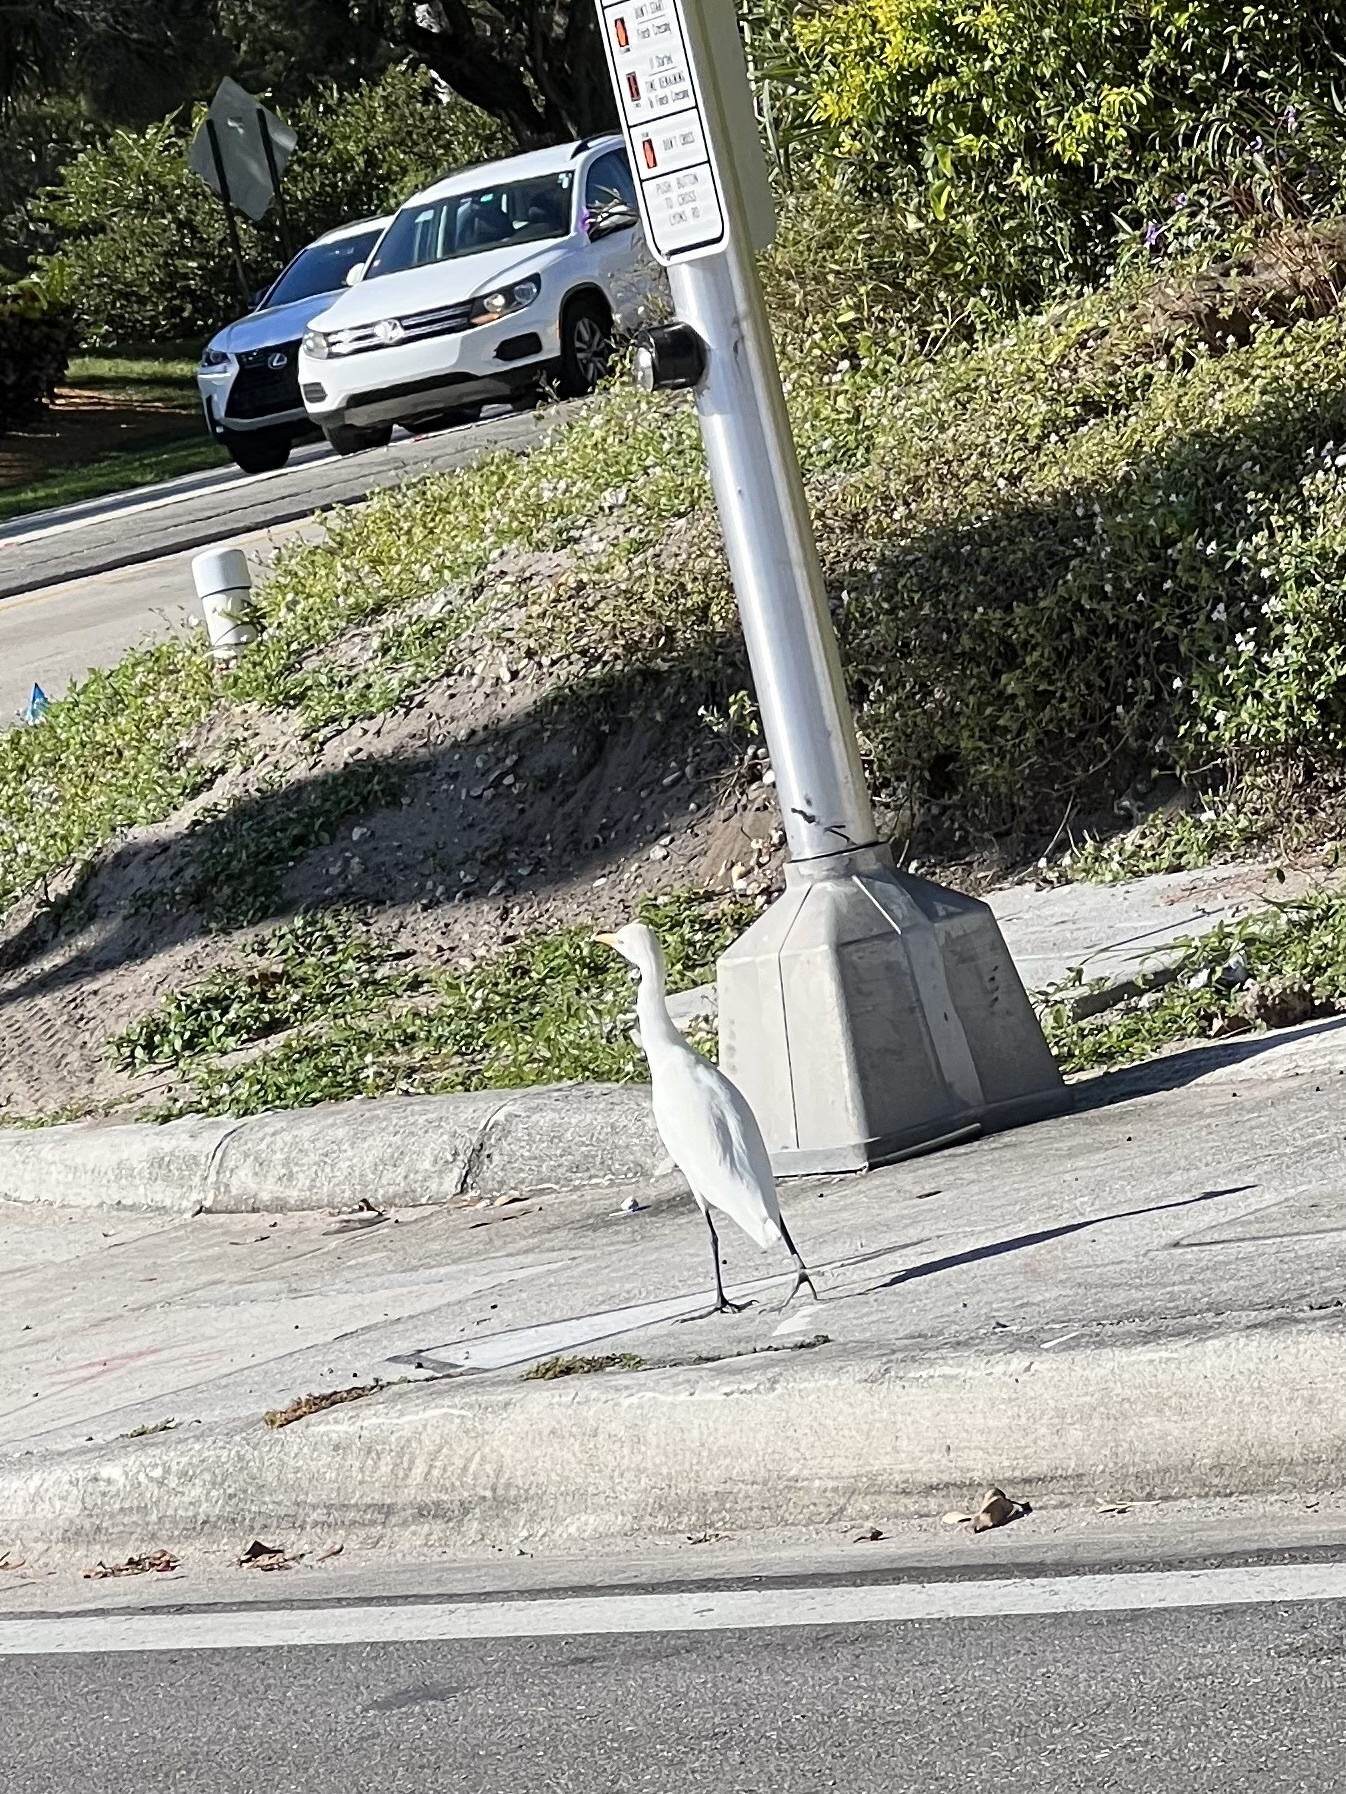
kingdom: Animalia
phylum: Chordata
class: Aves
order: Pelecaniformes
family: Ardeidae
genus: Bubulcus
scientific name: Bubulcus ibis
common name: Cattle egret
